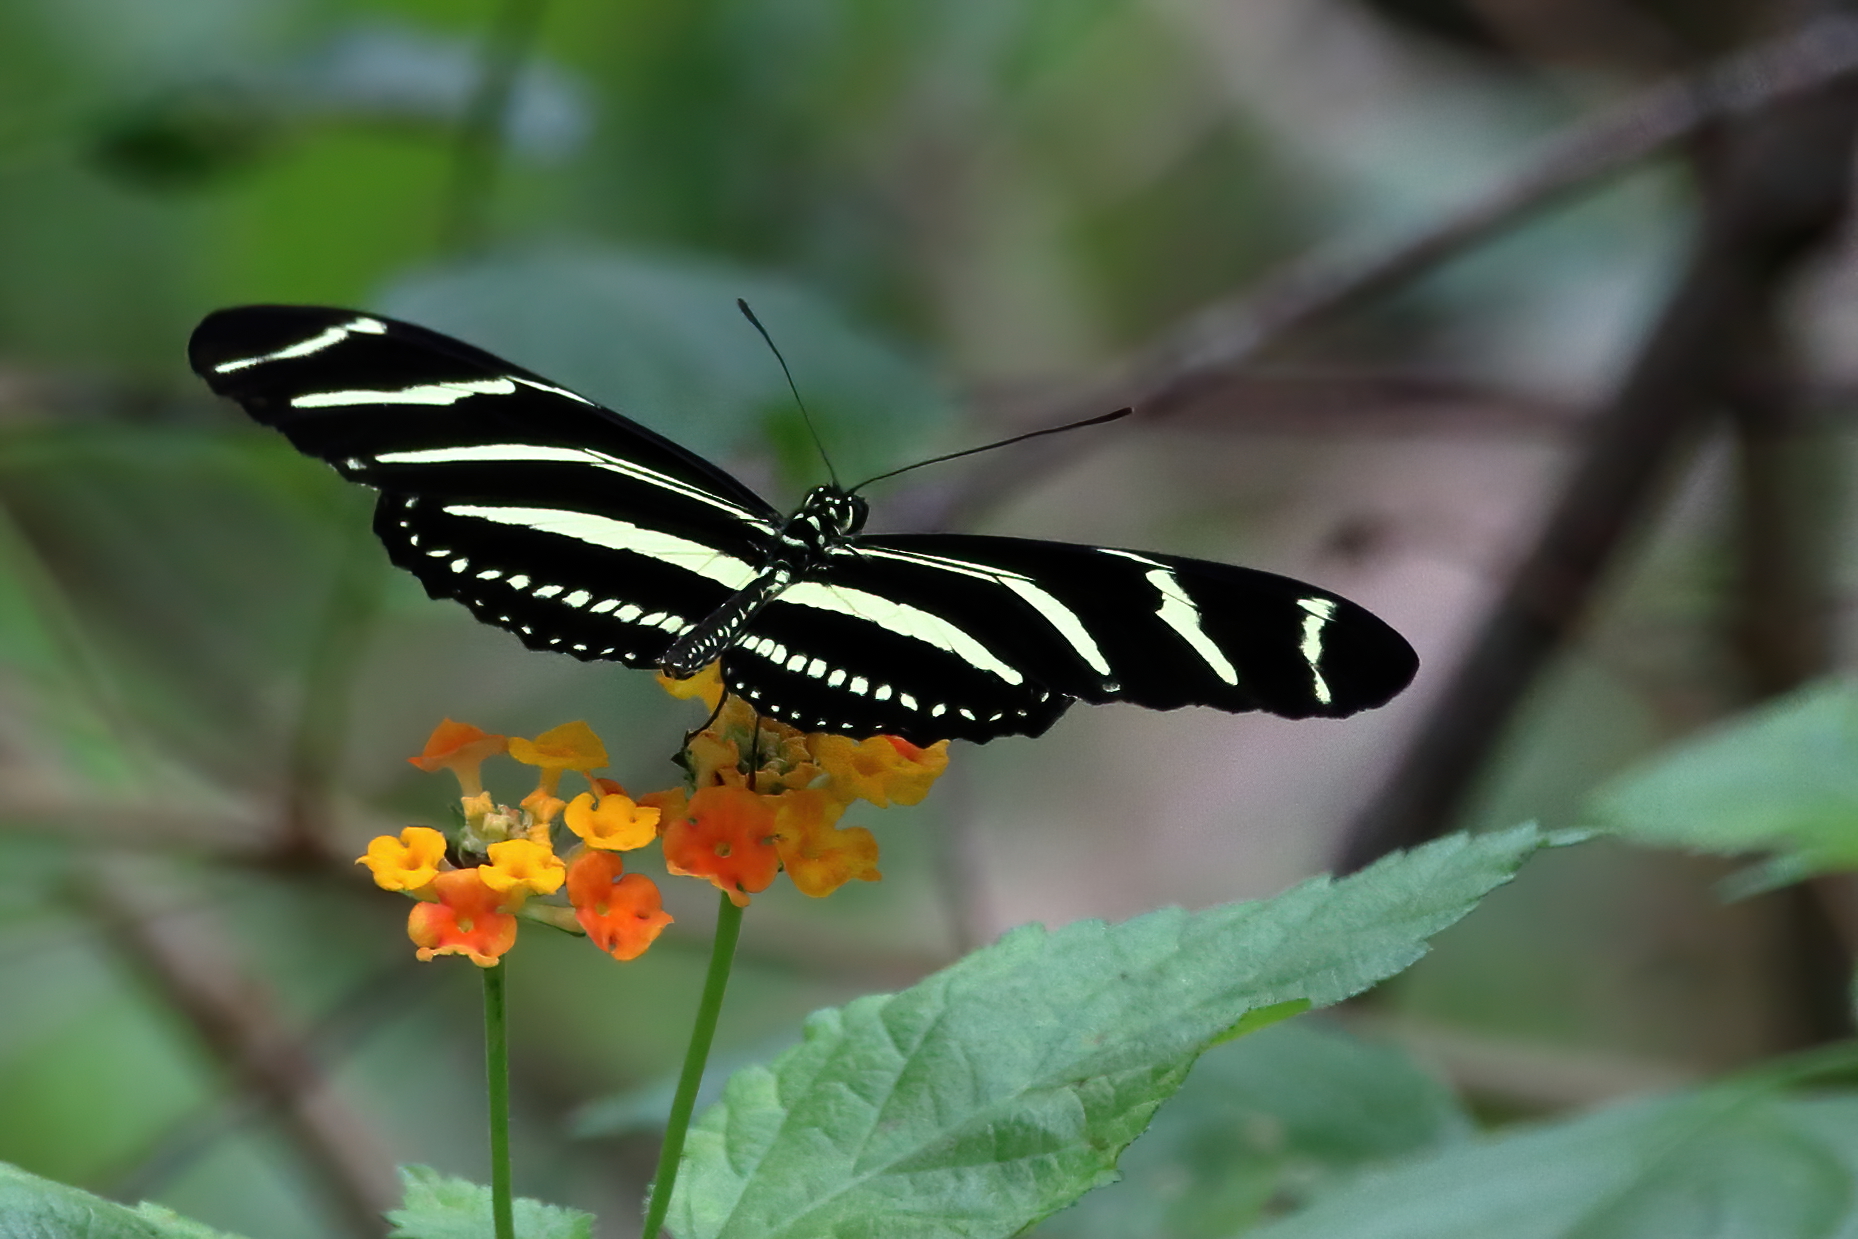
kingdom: Animalia
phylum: Arthropoda
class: Insecta
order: Lepidoptera
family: Nymphalidae
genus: Heliconius
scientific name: Heliconius charithonia
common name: Zebra long wing
